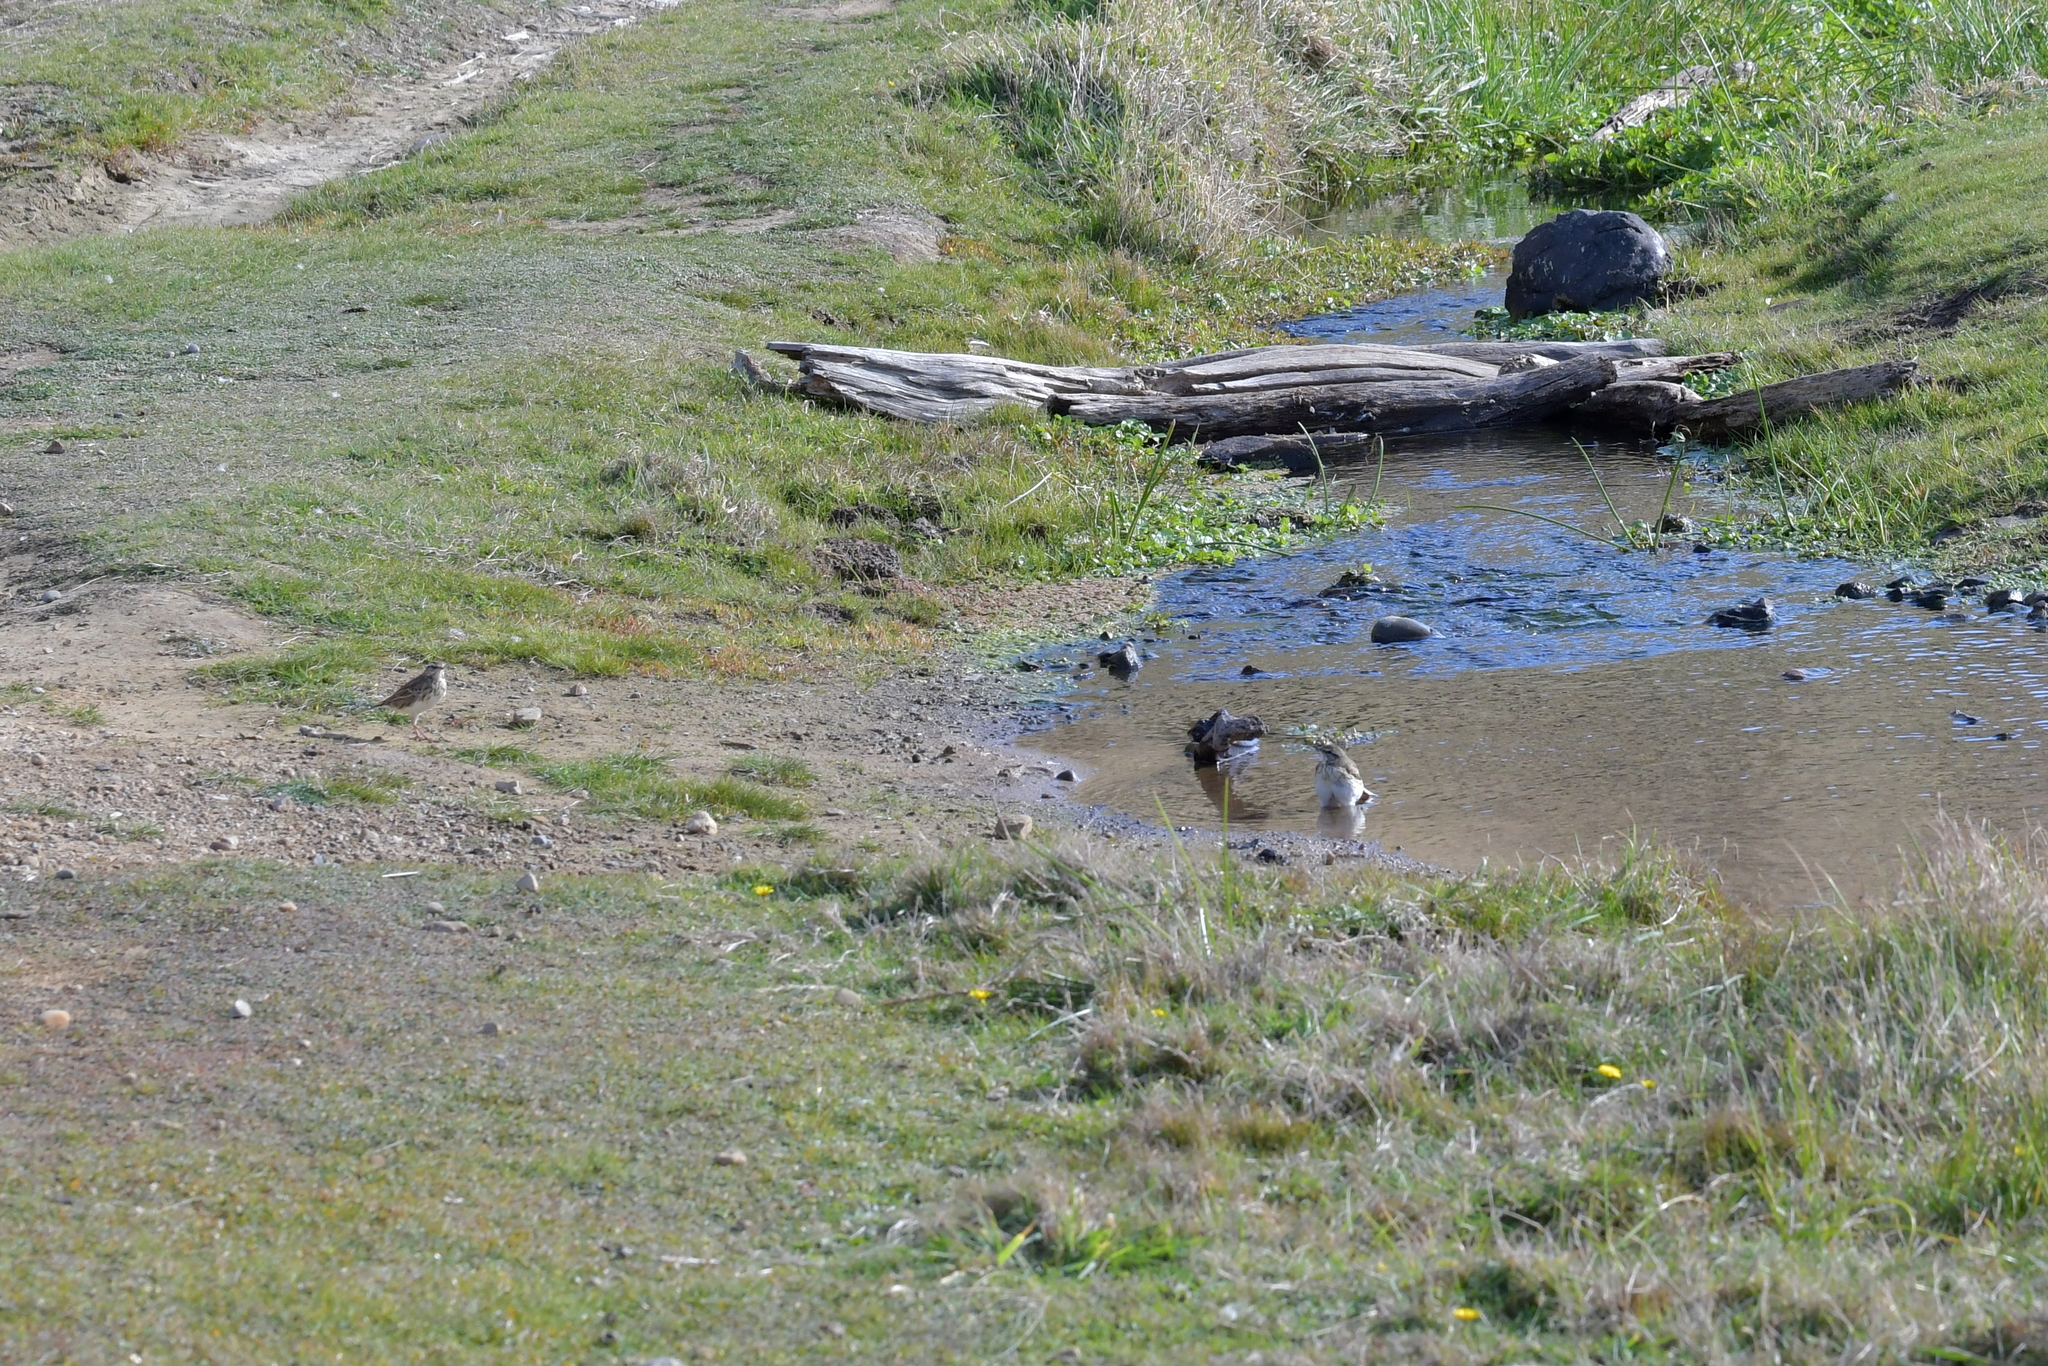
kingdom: Animalia
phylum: Chordata
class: Aves
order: Passeriformes
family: Motacillidae
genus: Anthus
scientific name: Anthus novaeseelandiae
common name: New zealand pipit
